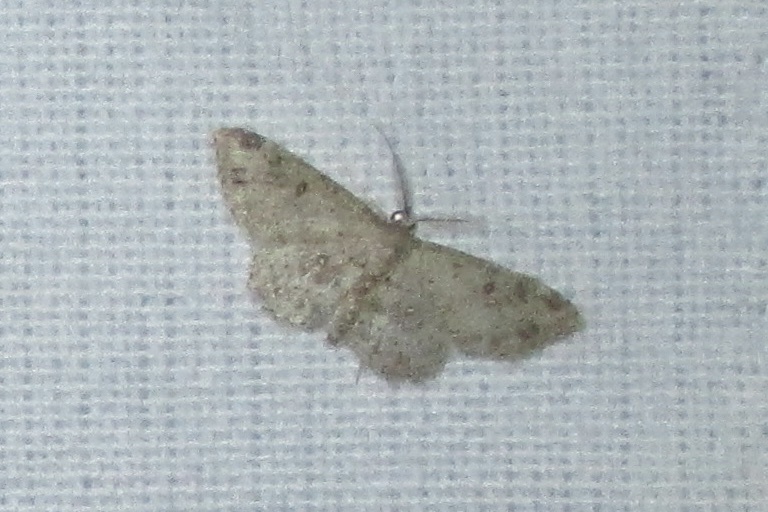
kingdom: Animalia
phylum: Arthropoda
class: Insecta
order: Lepidoptera
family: Geometridae
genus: Cyclophora
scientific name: Cyclophora nanaria
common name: Cankerworm
